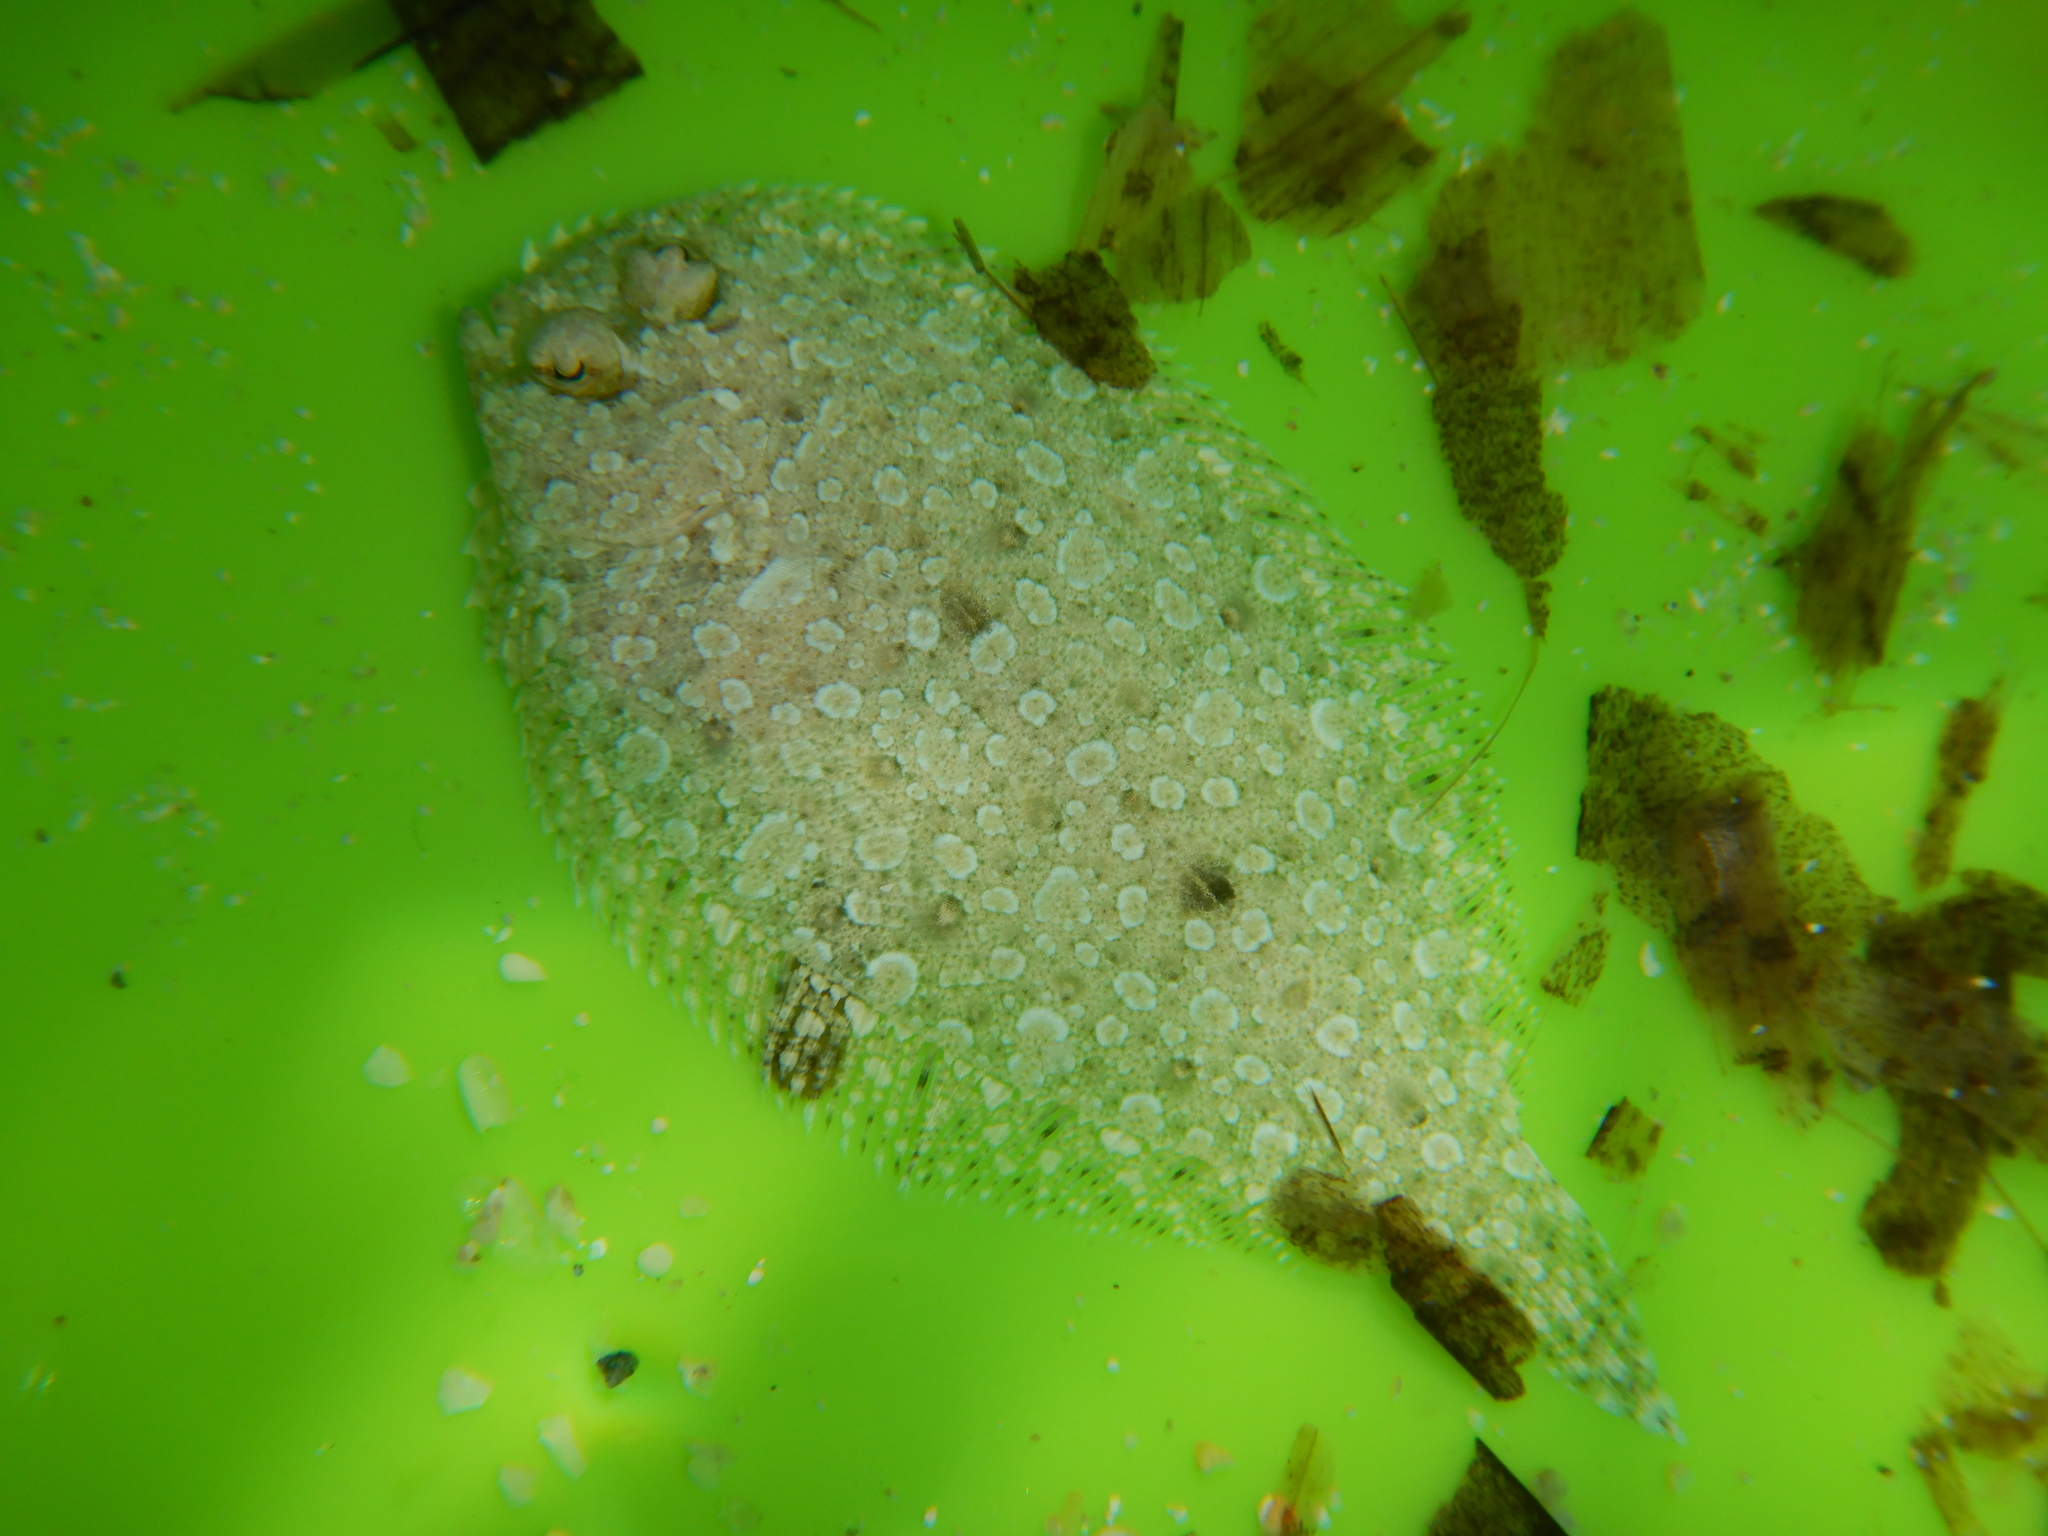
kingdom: Animalia
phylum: Chordata
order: Pleuronectiformes
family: Bothidae
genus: Bothus
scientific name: Bothus podas
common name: Wide-eyed flounder
